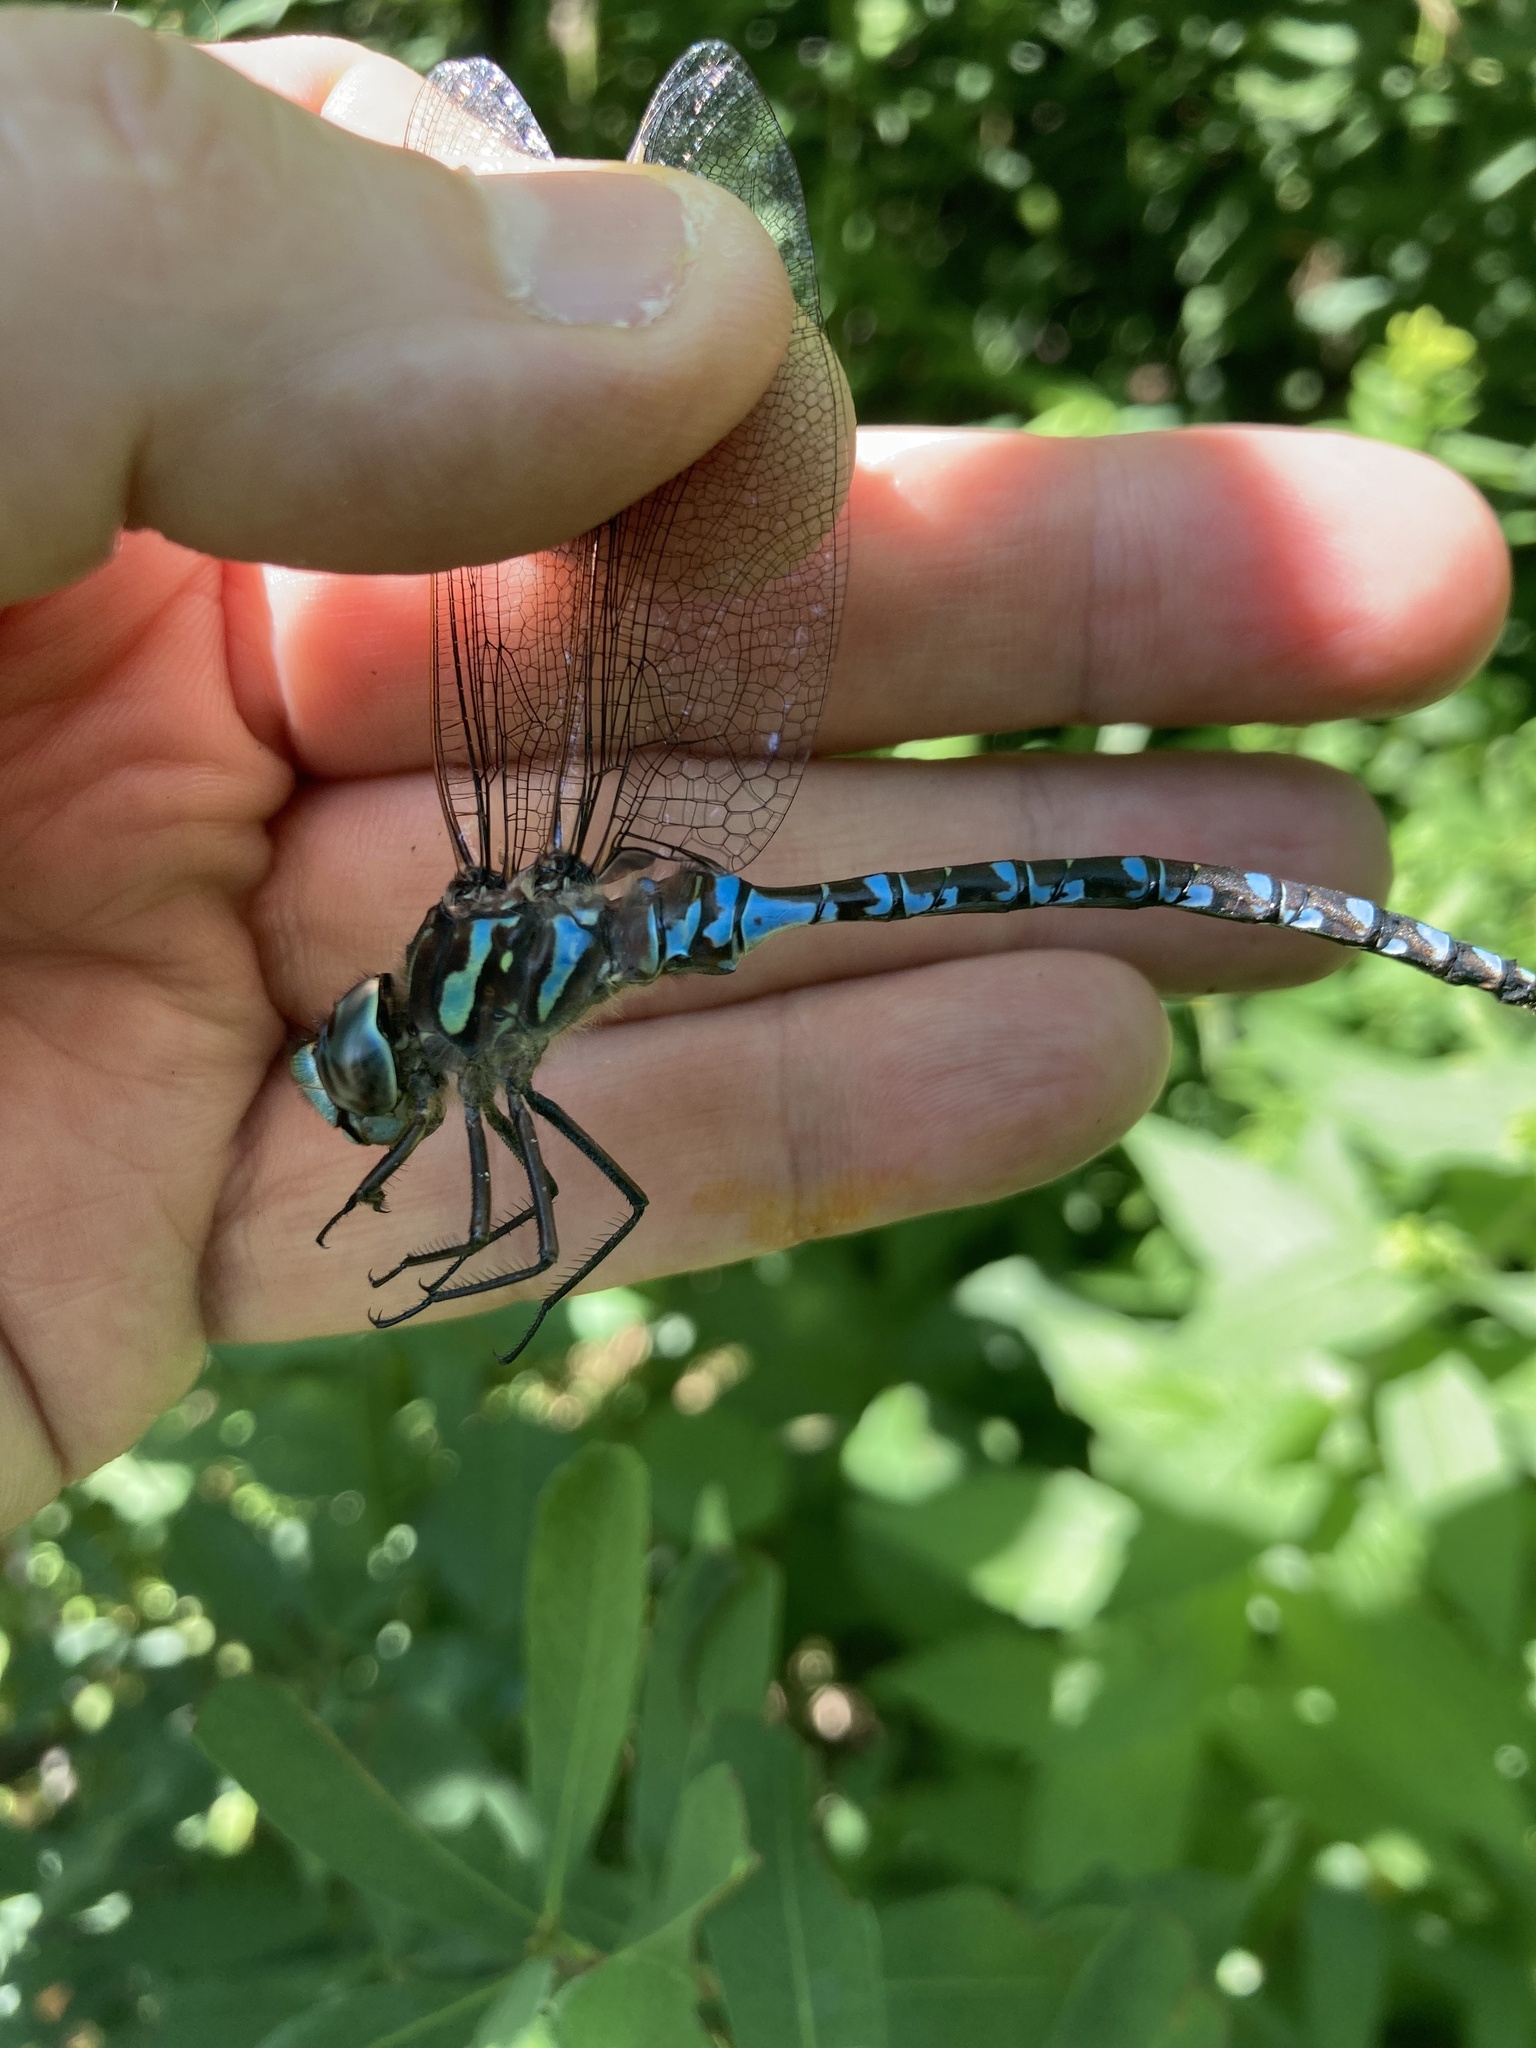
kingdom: Animalia
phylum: Arthropoda
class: Insecta
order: Odonata
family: Aeshnidae
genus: Aeshna
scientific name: Aeshna canadensis
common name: Canada darner
